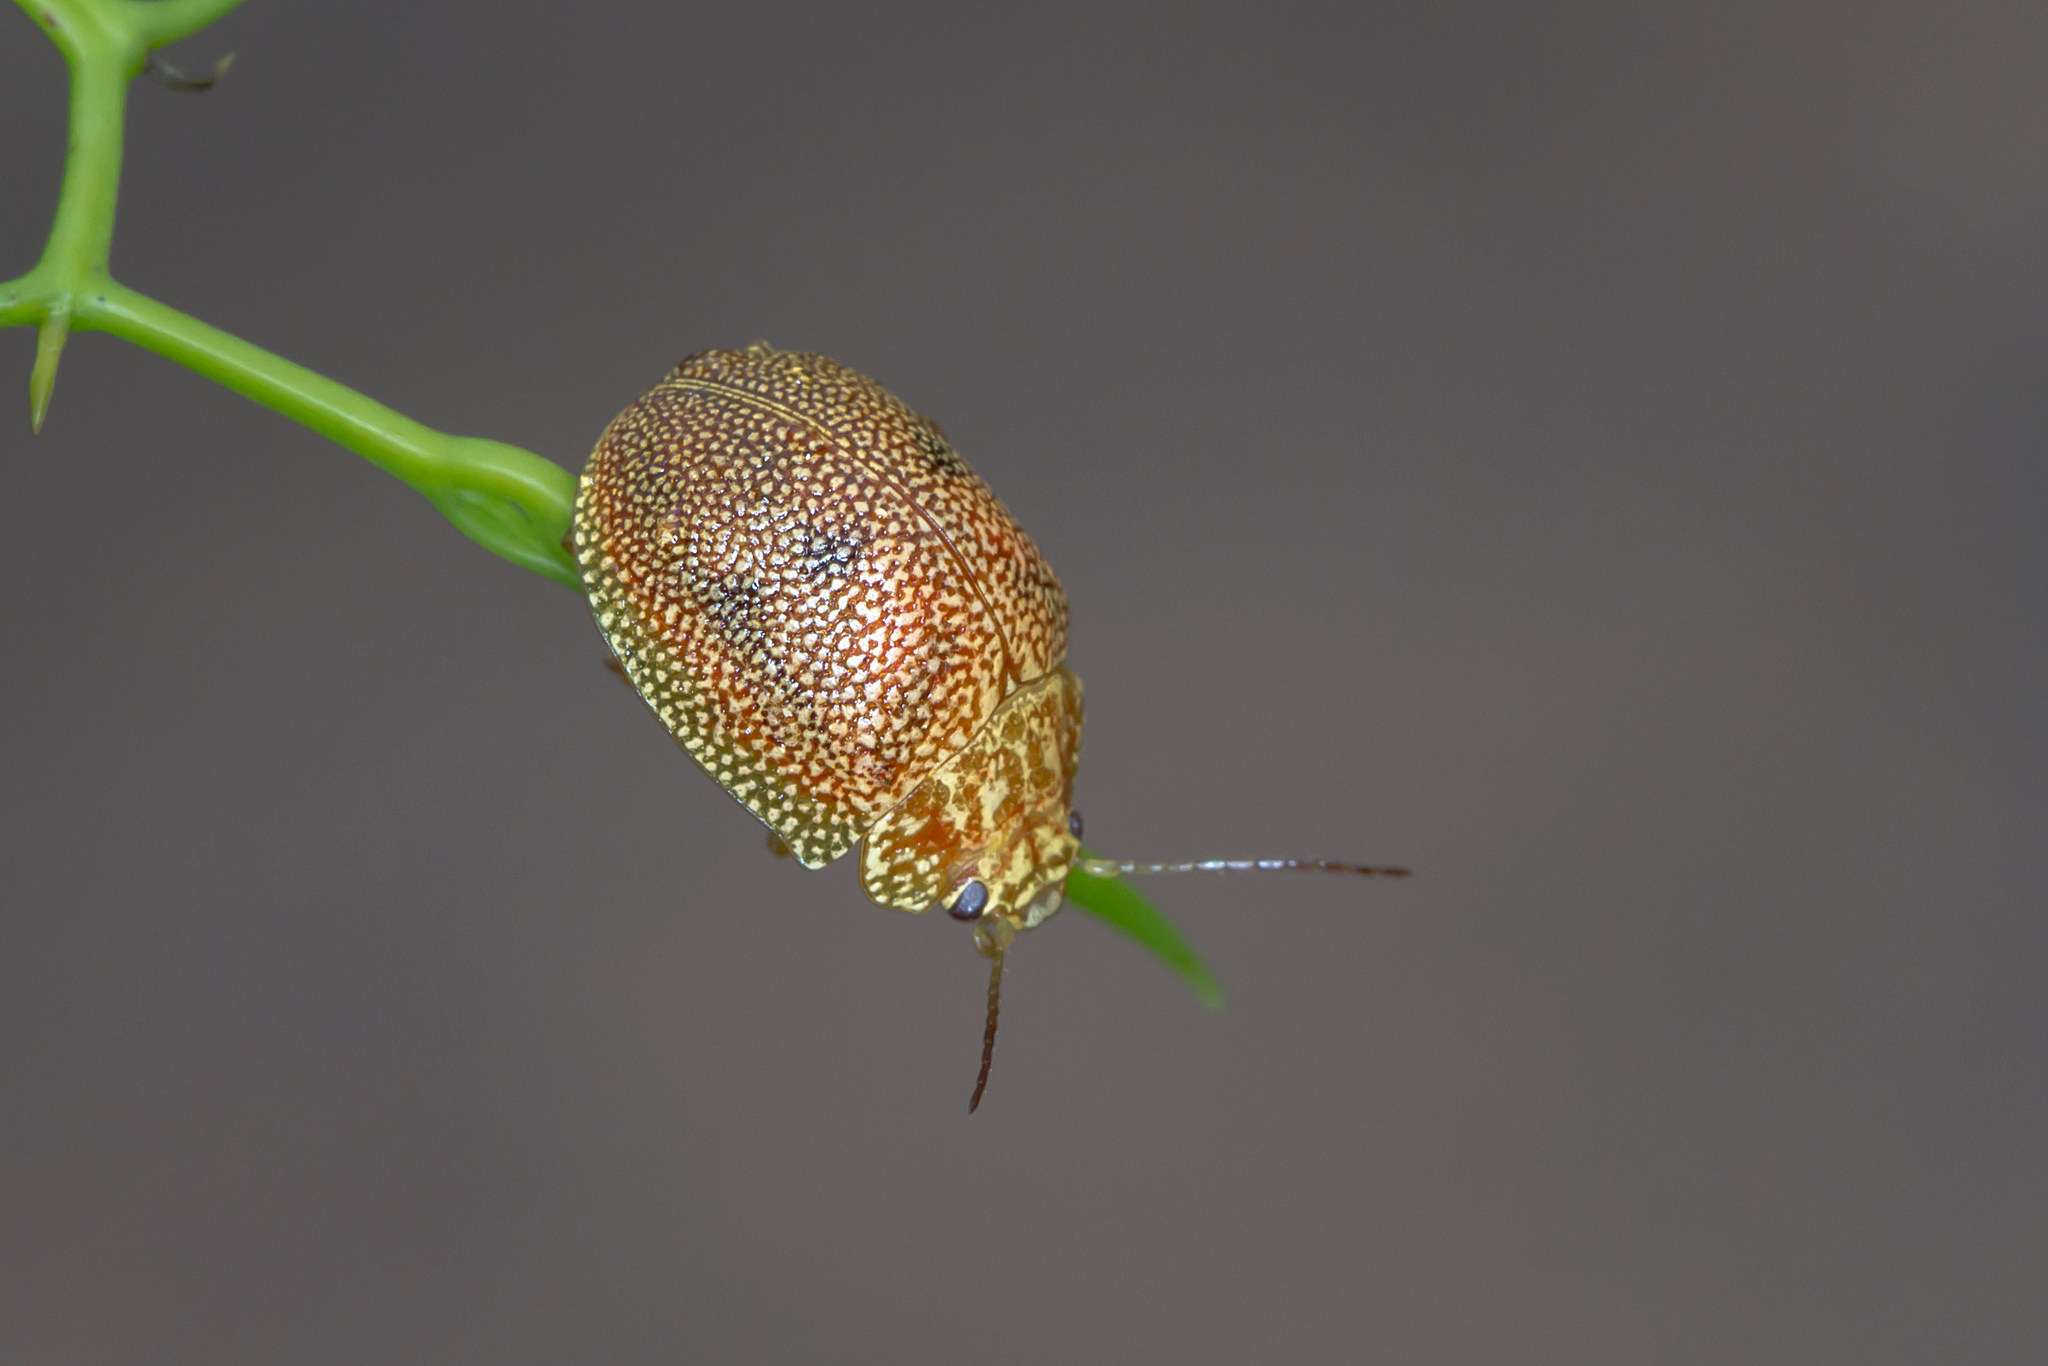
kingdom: Animalia
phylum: Arthropoda
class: Insecta
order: Coleoptera
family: Chrysomelidae
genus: Paropsis
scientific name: Paropsis
